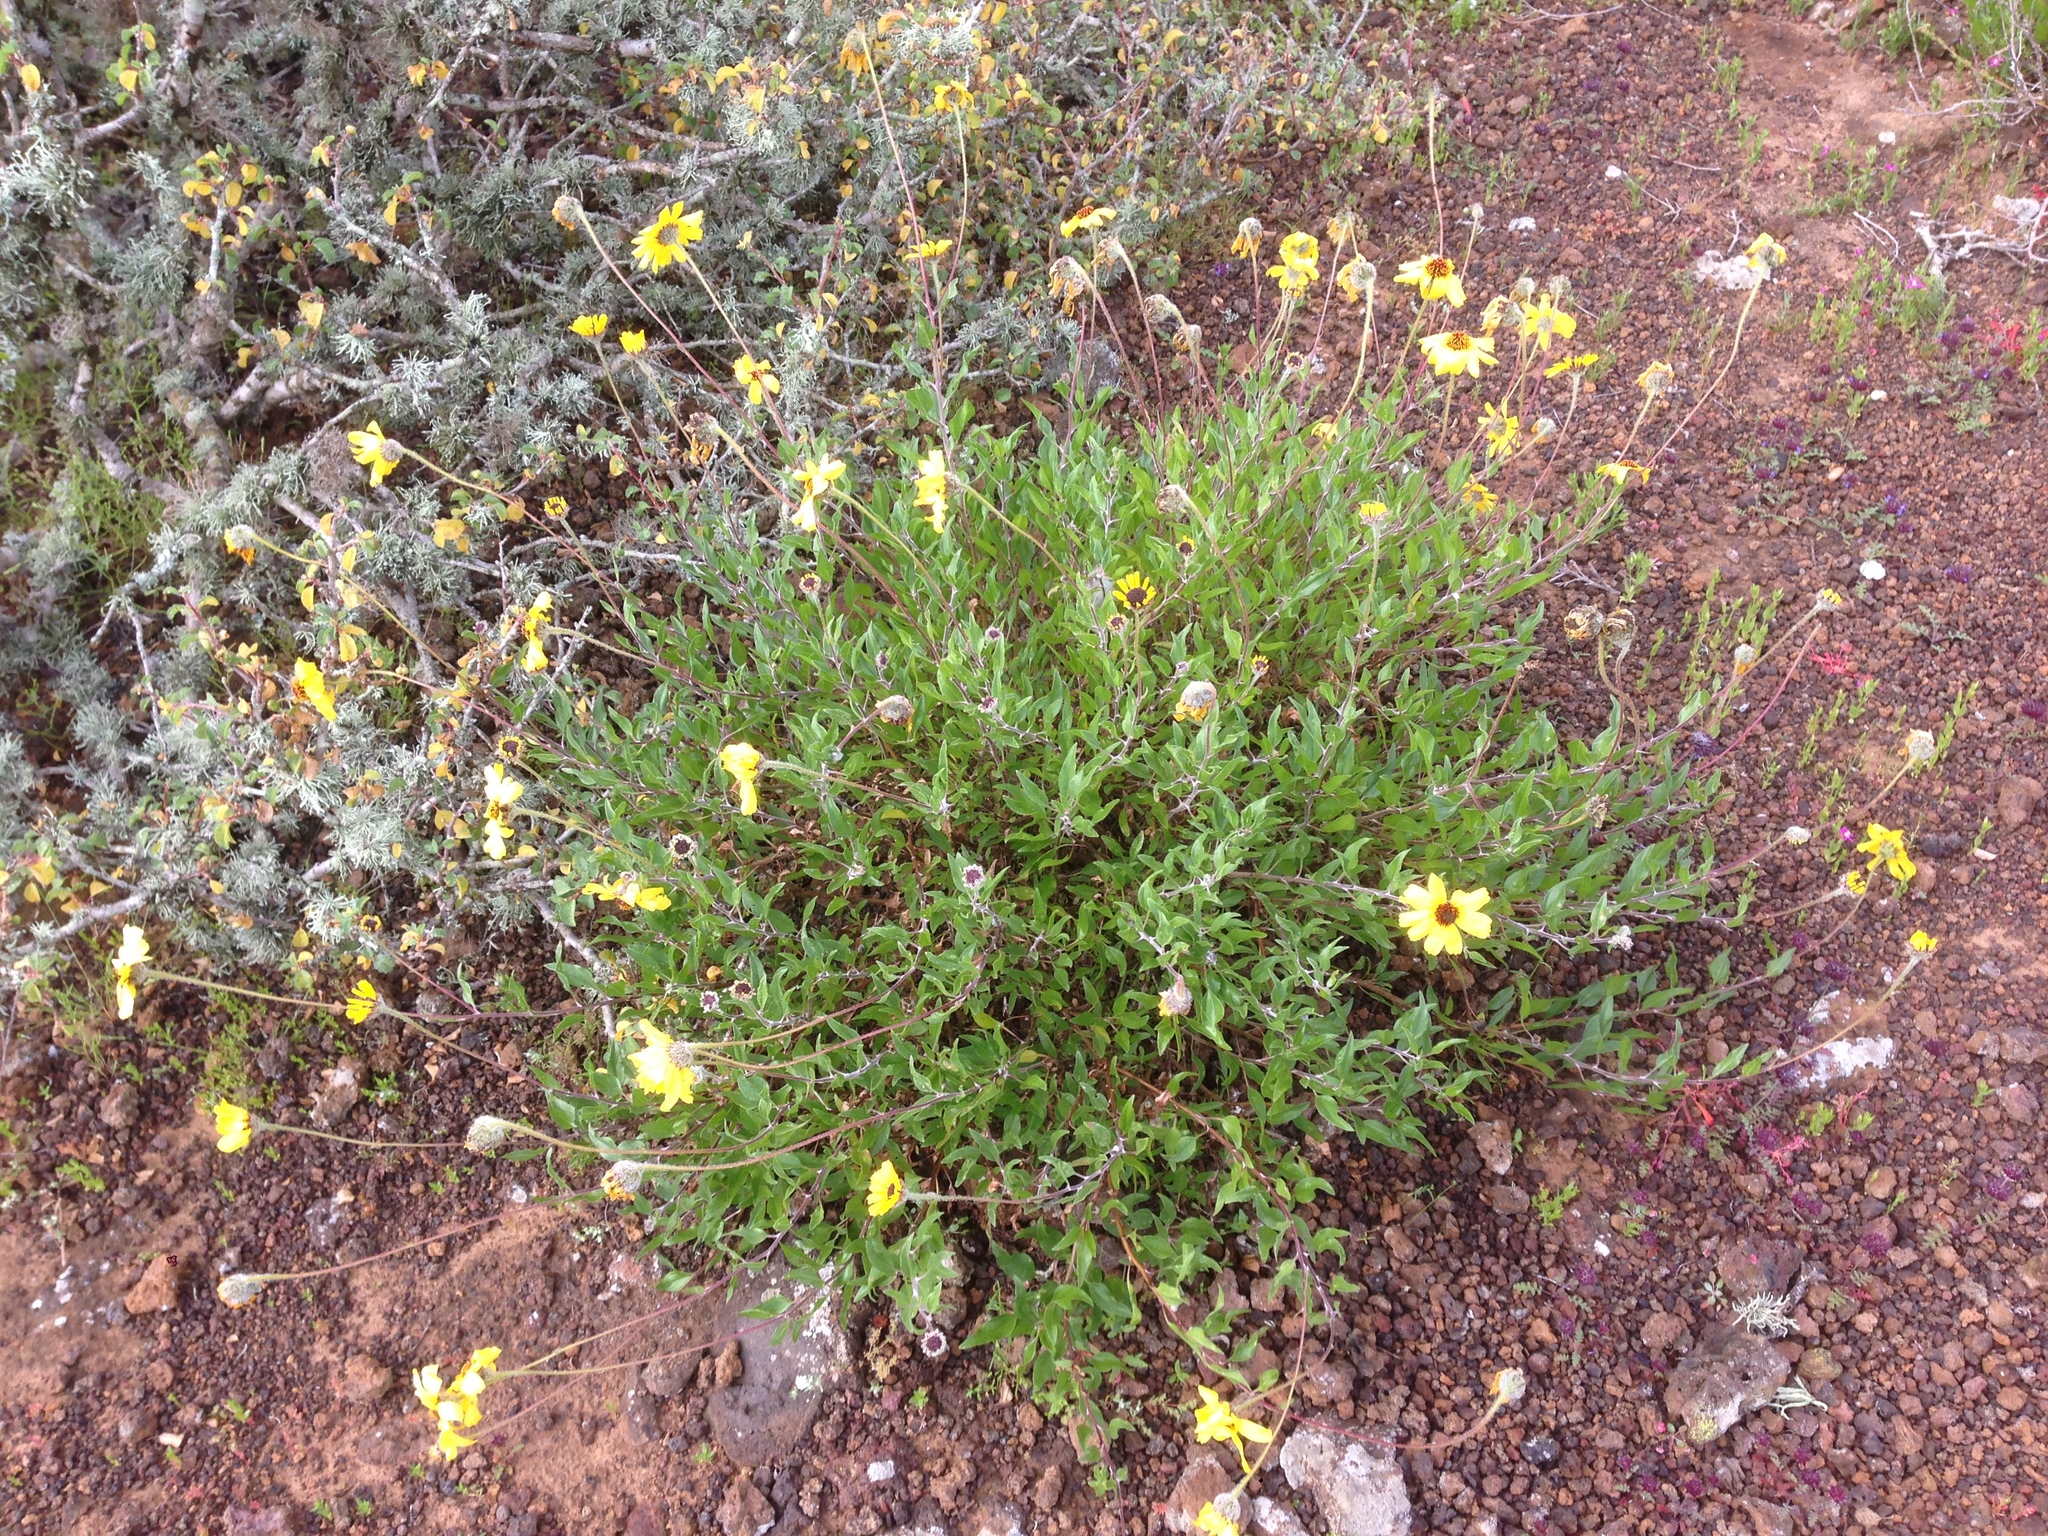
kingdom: Plantae
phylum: Tracheophyta
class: Magnoliopsida
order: Asterales
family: Asteraceae
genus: Encelia
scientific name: Encelia californica
